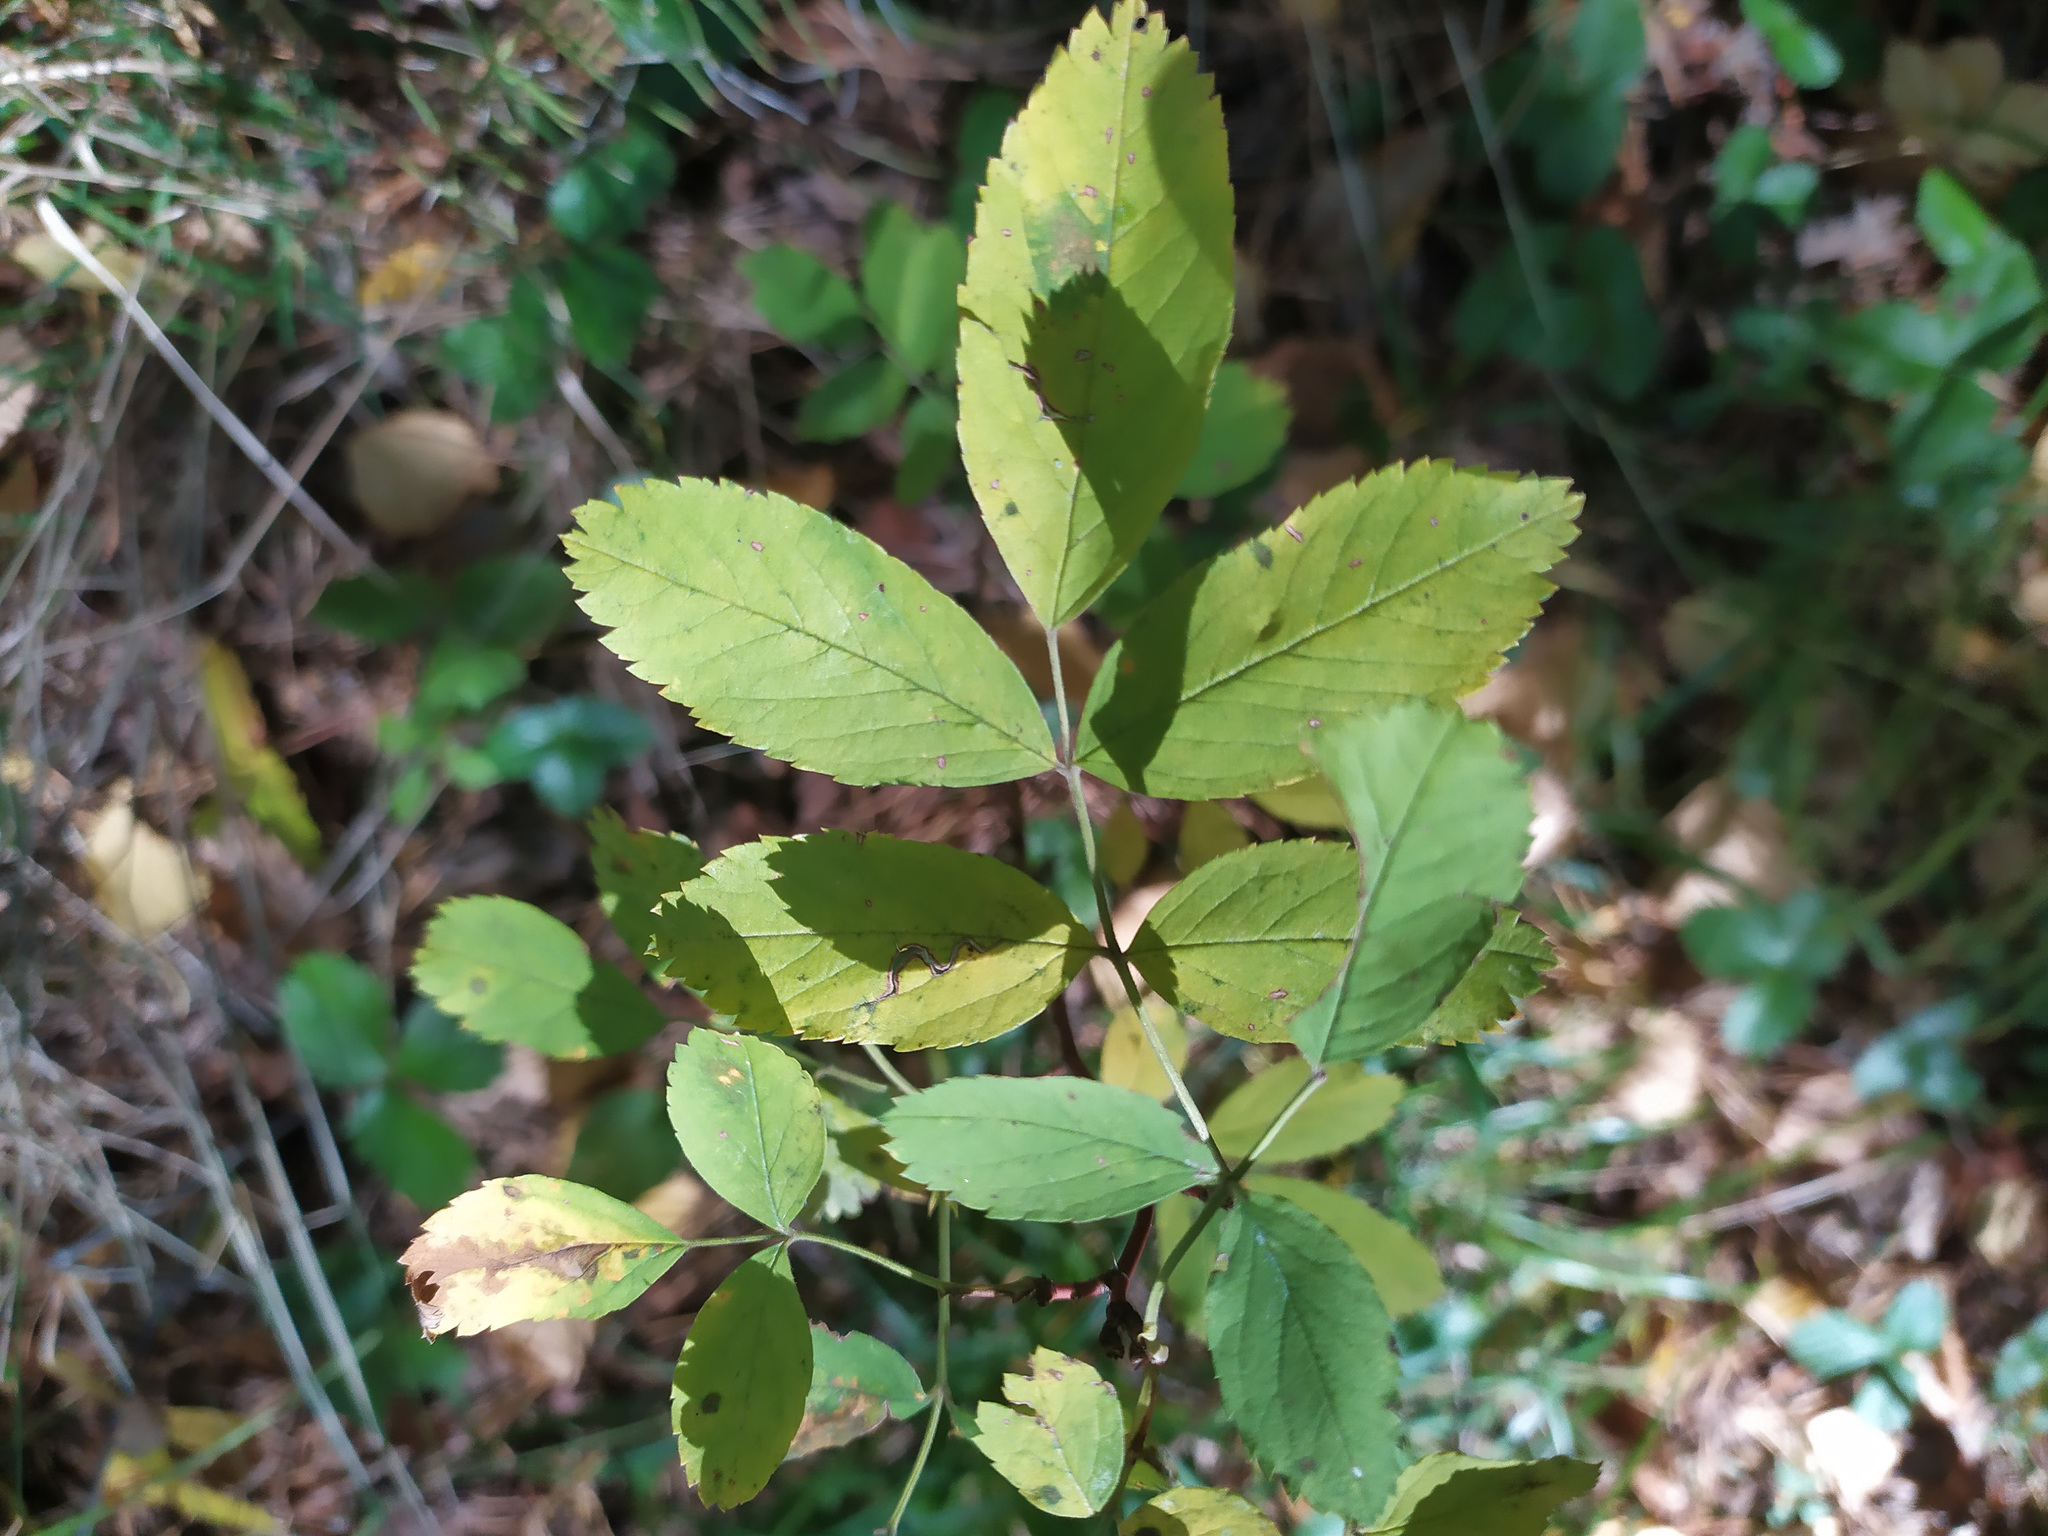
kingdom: Plantae
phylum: Tracheophyta
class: Magnoliopsida
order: Rosales
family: Rosaceae
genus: Rosa
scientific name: Rosa
